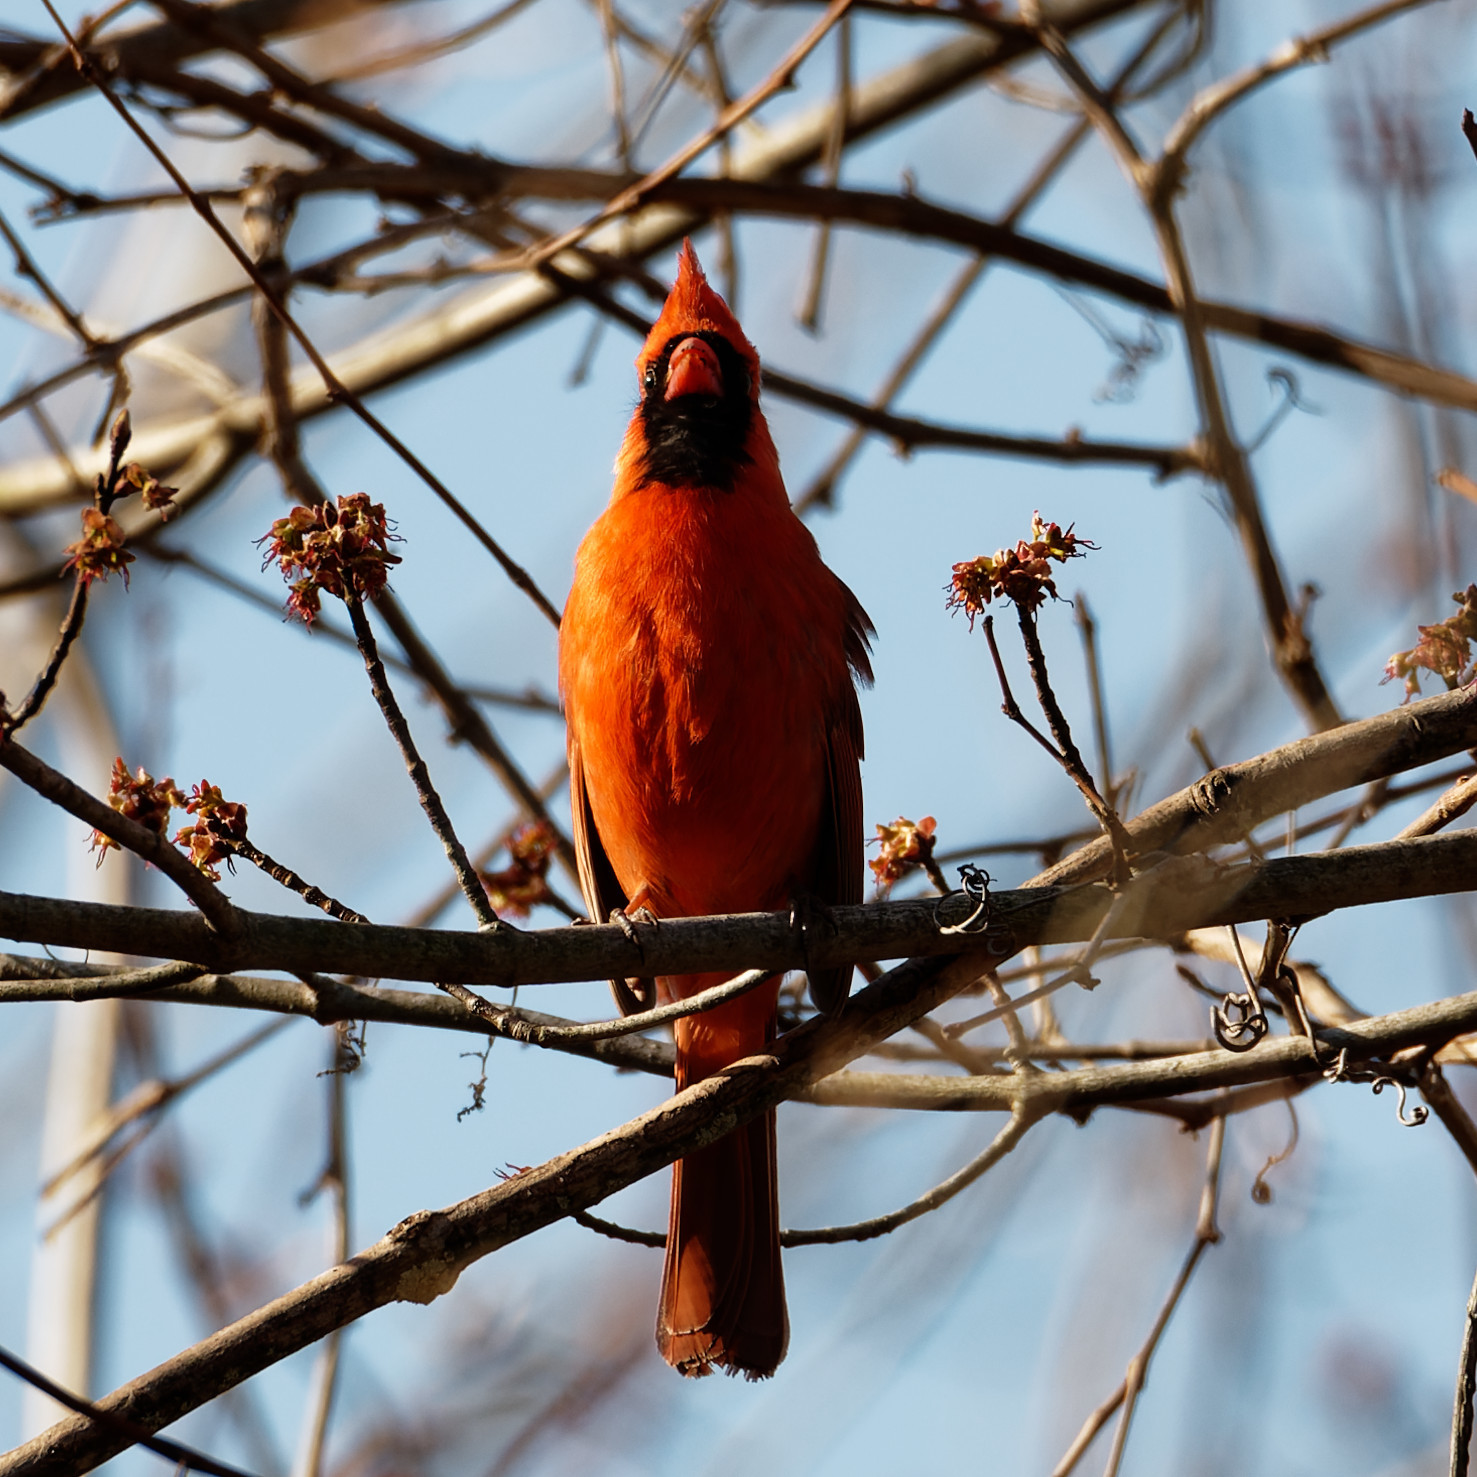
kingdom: Animalia
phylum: Chordata
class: Aves
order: Passeriformes
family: Cardinalidae
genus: Cardinalis
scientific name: Cardinalis cardinalis
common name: Northern cardinal
